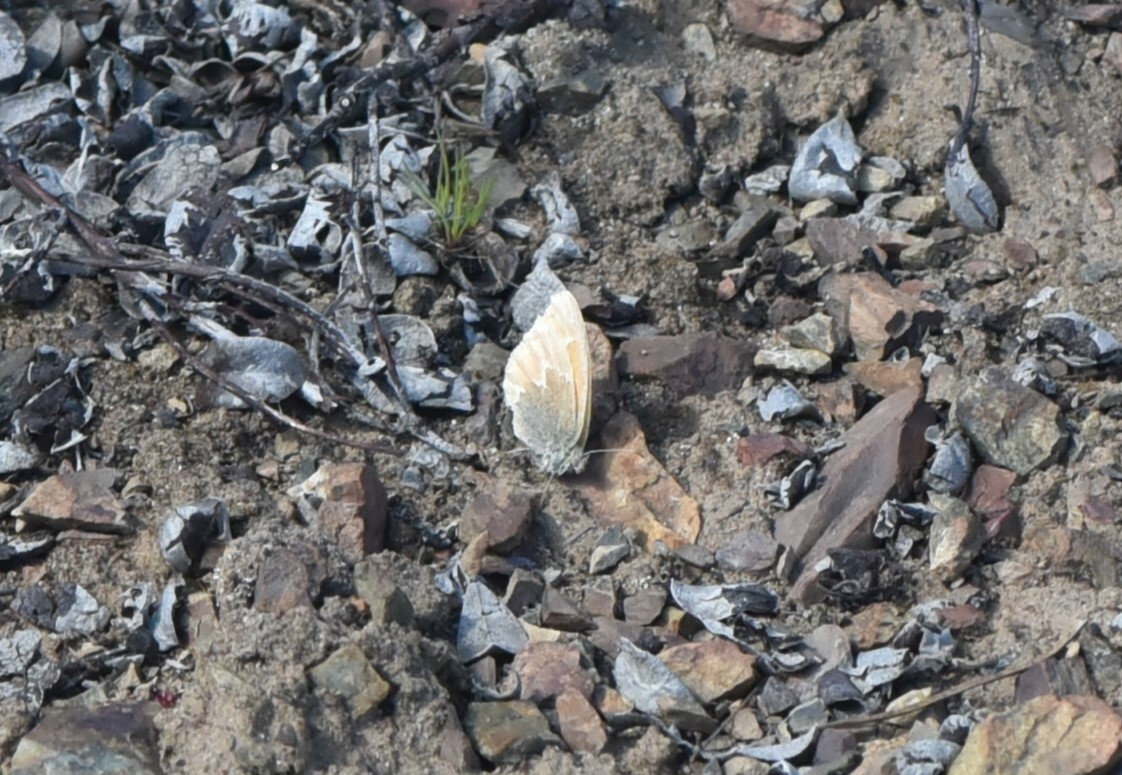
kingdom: Animalia
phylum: Arthropoda
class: Insecta
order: Lepidoptera
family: Nymphalidae
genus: Coenonympha
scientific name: Coenonympha california
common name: Common ringlet
